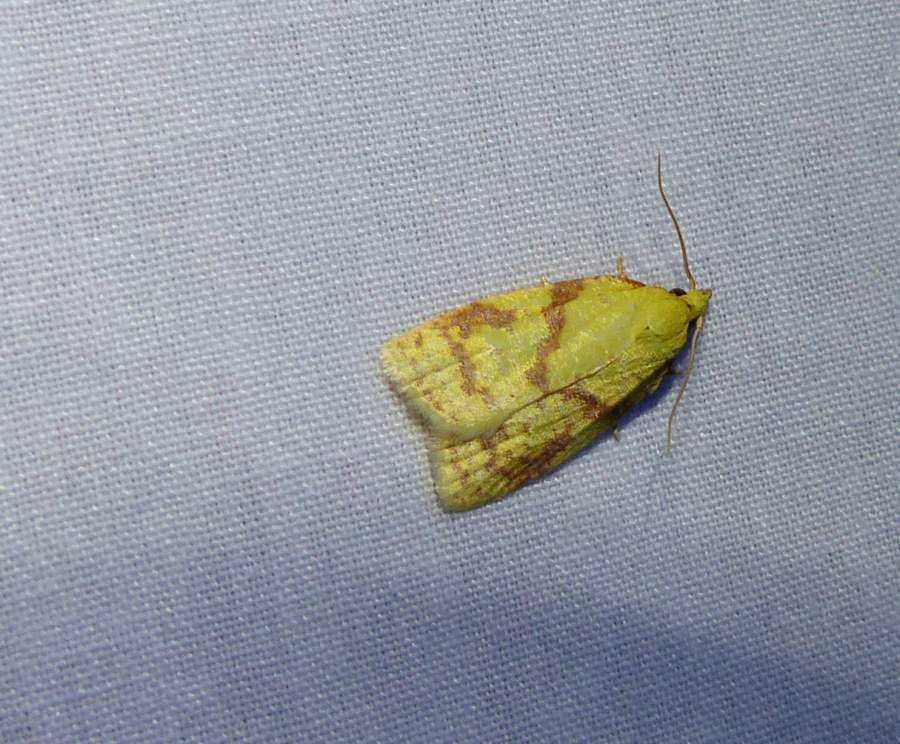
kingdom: Animalia
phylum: Arthropoda
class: Insecta
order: Lepidoptera
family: Tortricidae
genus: Cenopis
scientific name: Cenopis pettitana
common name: Maple-basswood leafroller moth
